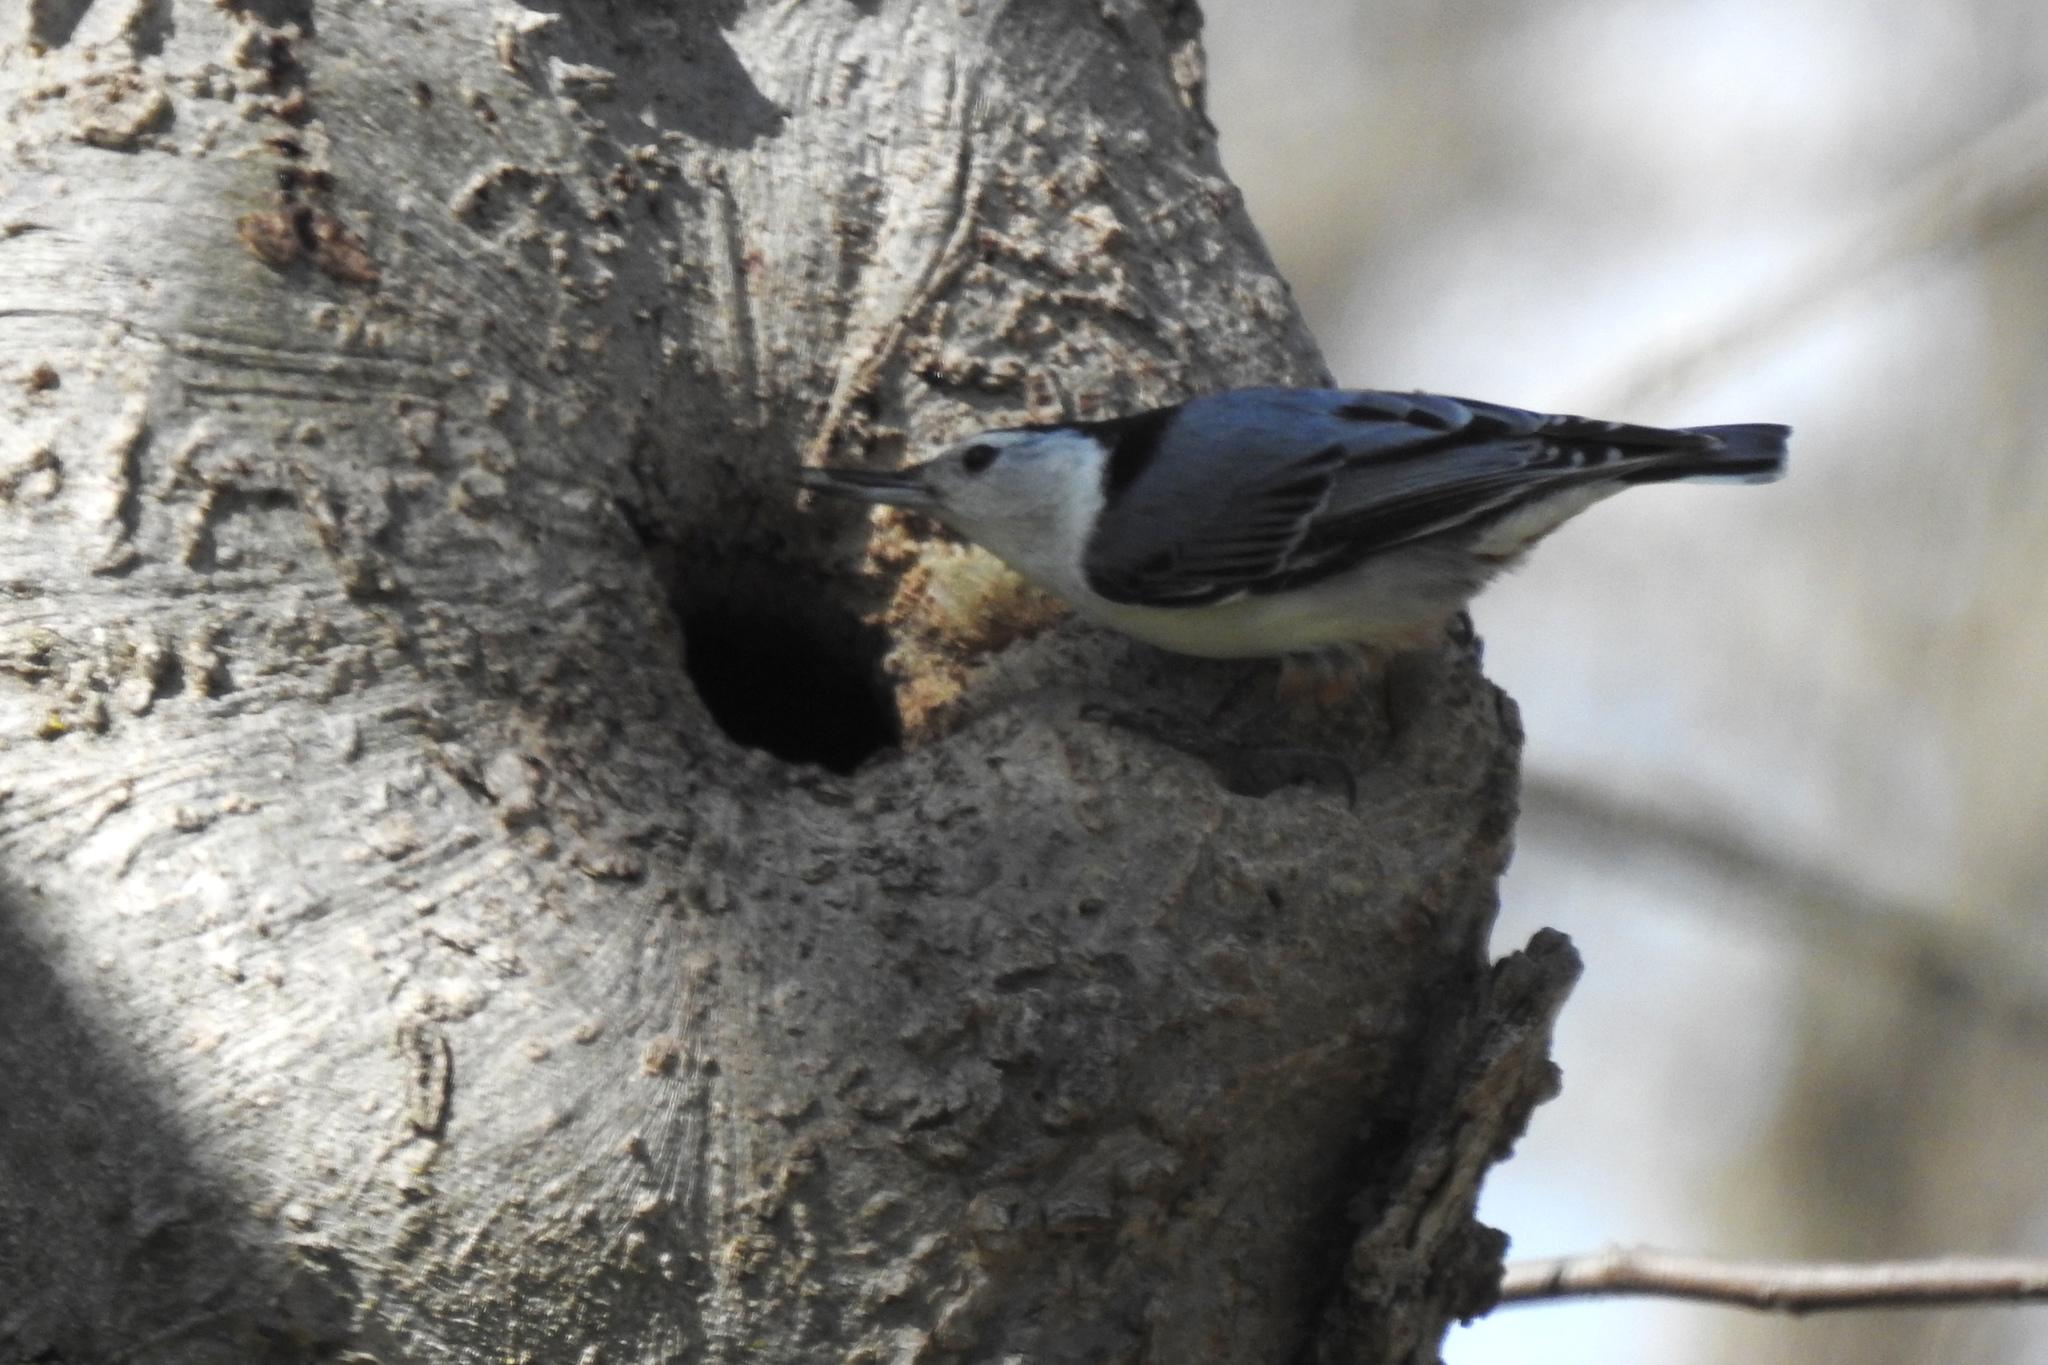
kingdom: Animalia
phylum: Chordata
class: Aves
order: Passeriformes
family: Sittidae
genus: Sitta
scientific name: Sitta carolinensis
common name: White-breasted nuthatch
